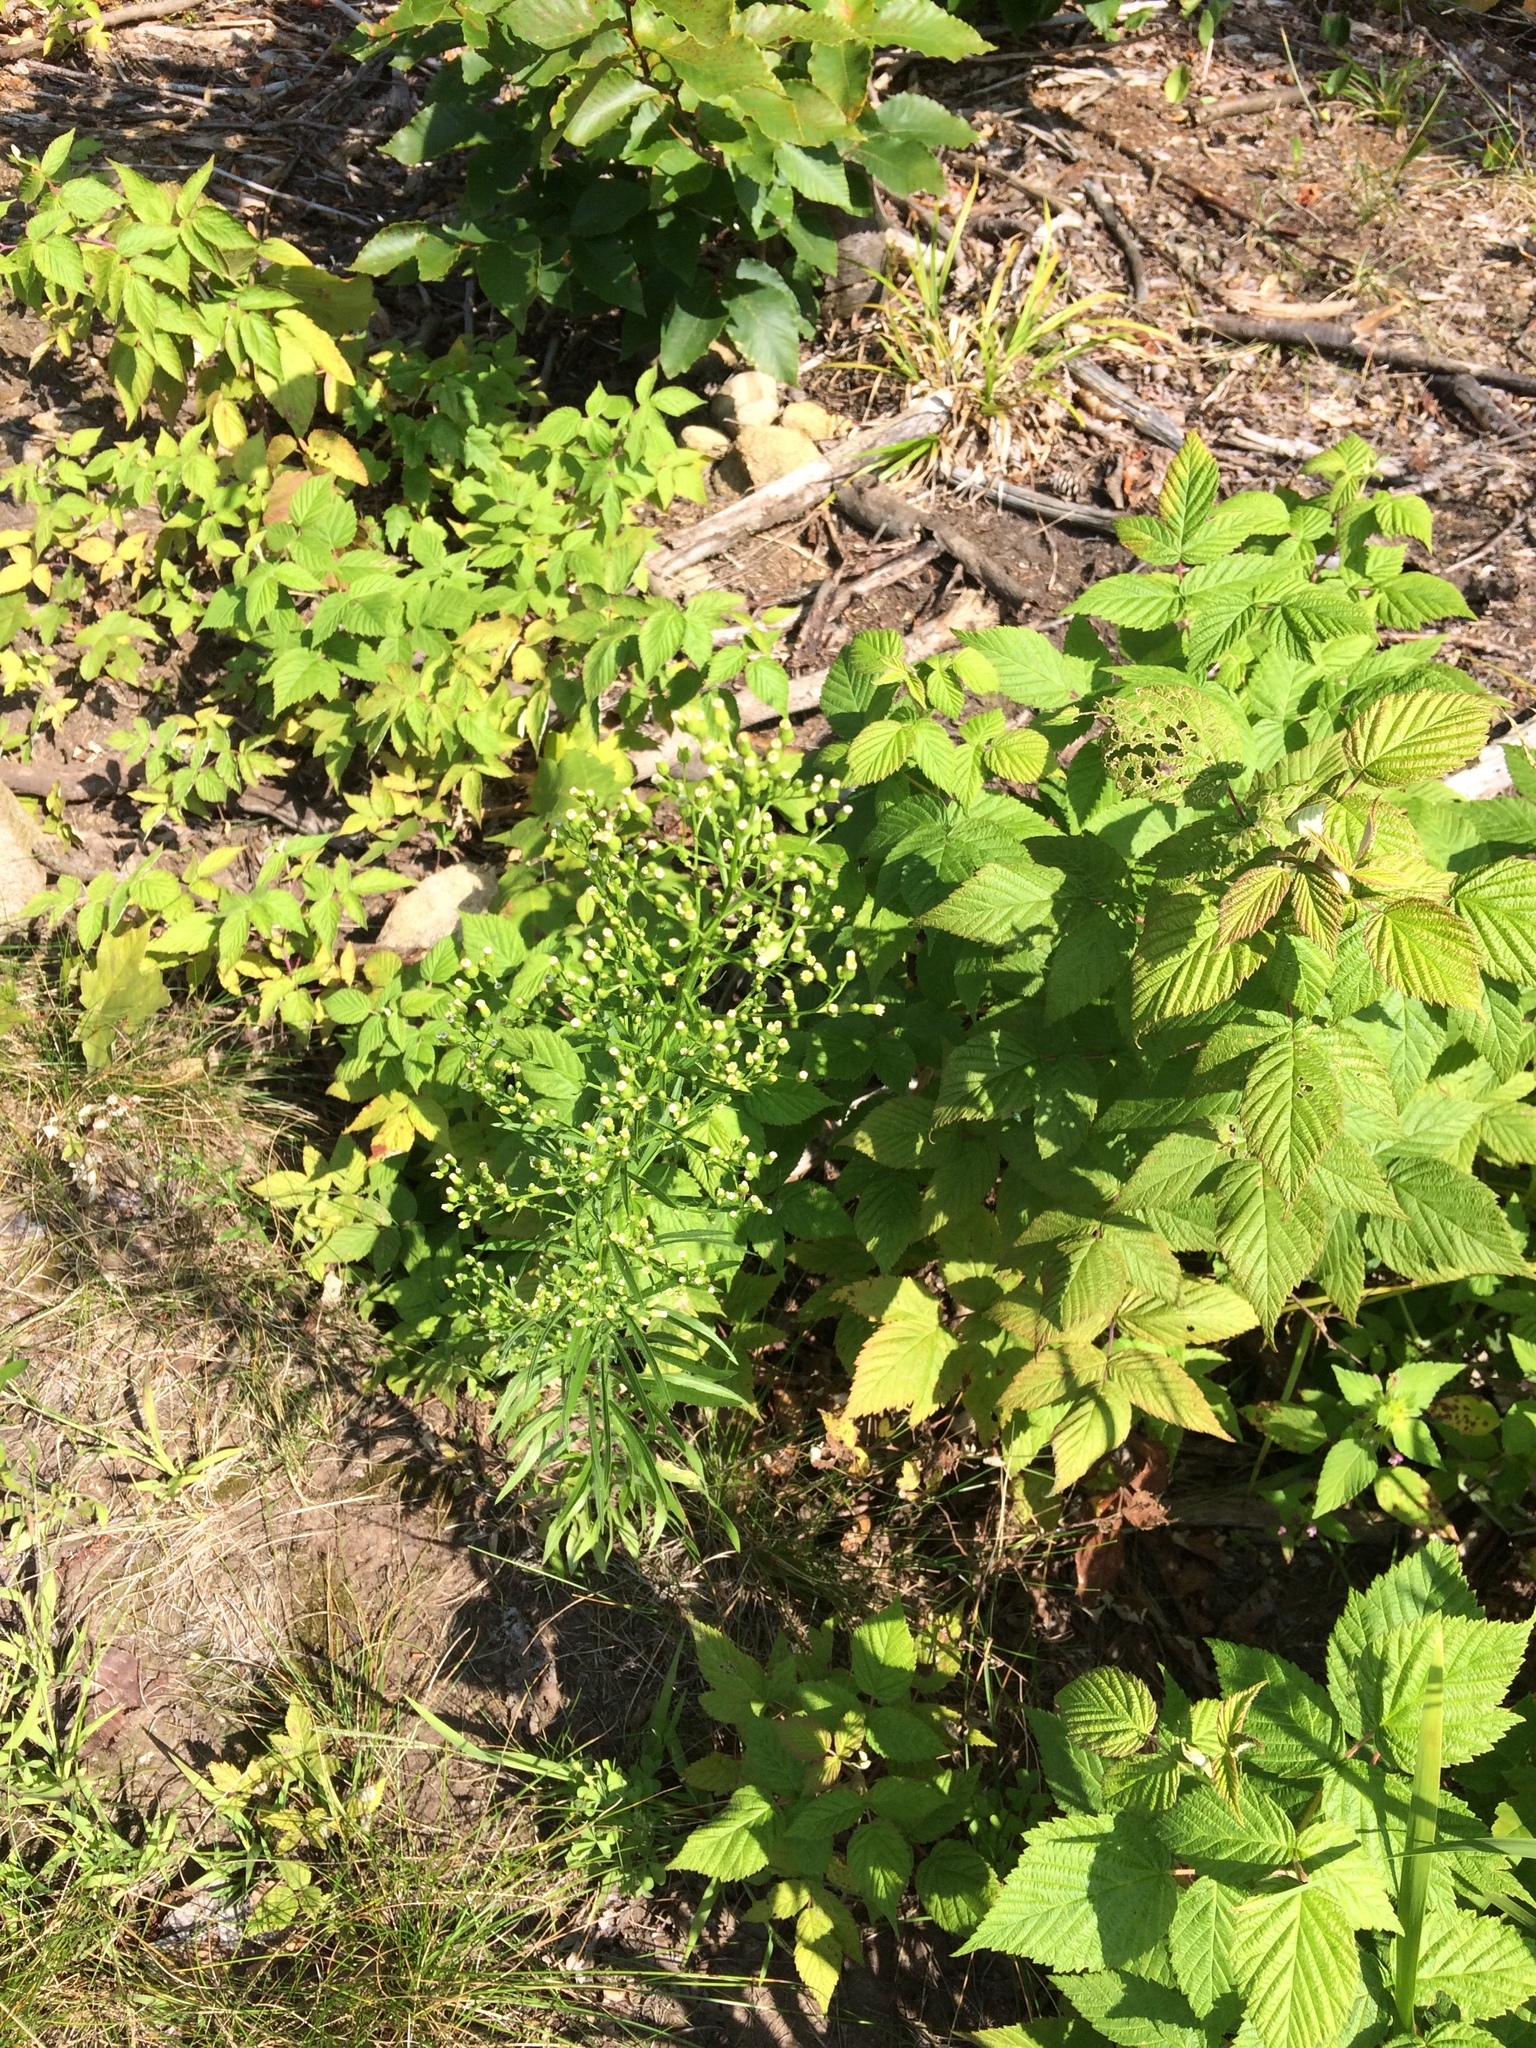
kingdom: Plantae
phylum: Tracheophyta
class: Magnoliopsida
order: Asterales
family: Asteraceae
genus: Erigeron
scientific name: Erigeron canadensis
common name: Canadian fleabane
